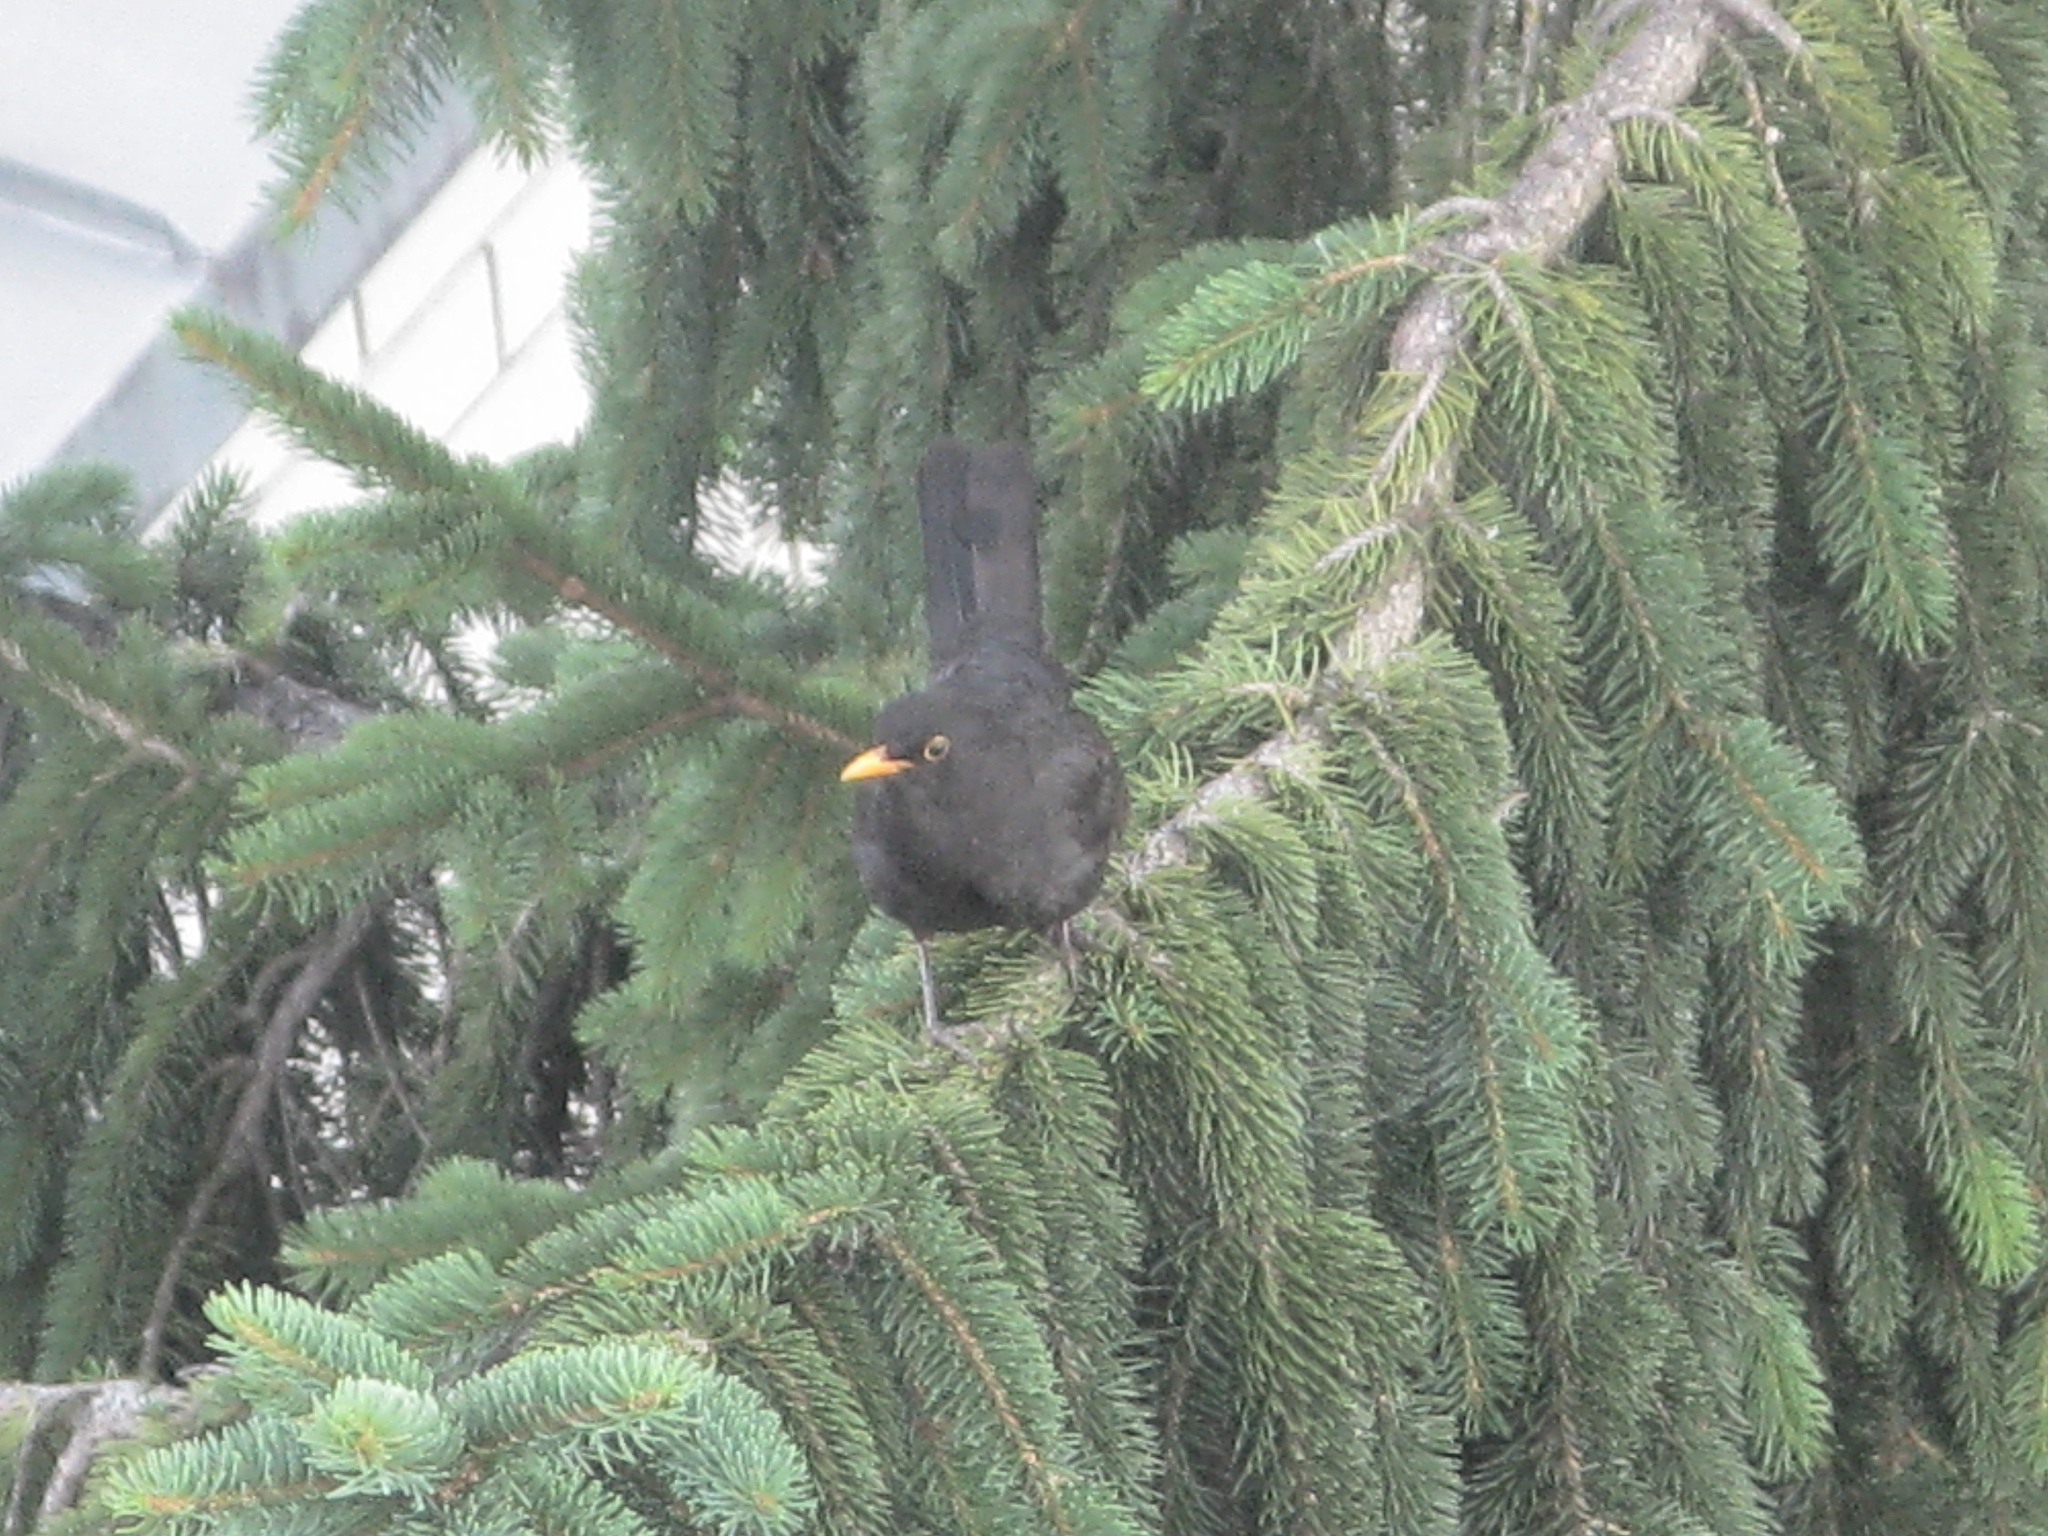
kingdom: Animalia
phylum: Chordata
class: Aves
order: Passeriformes
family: Turdidae
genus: Turdus
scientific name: Turdus merula
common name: Common blackbird
